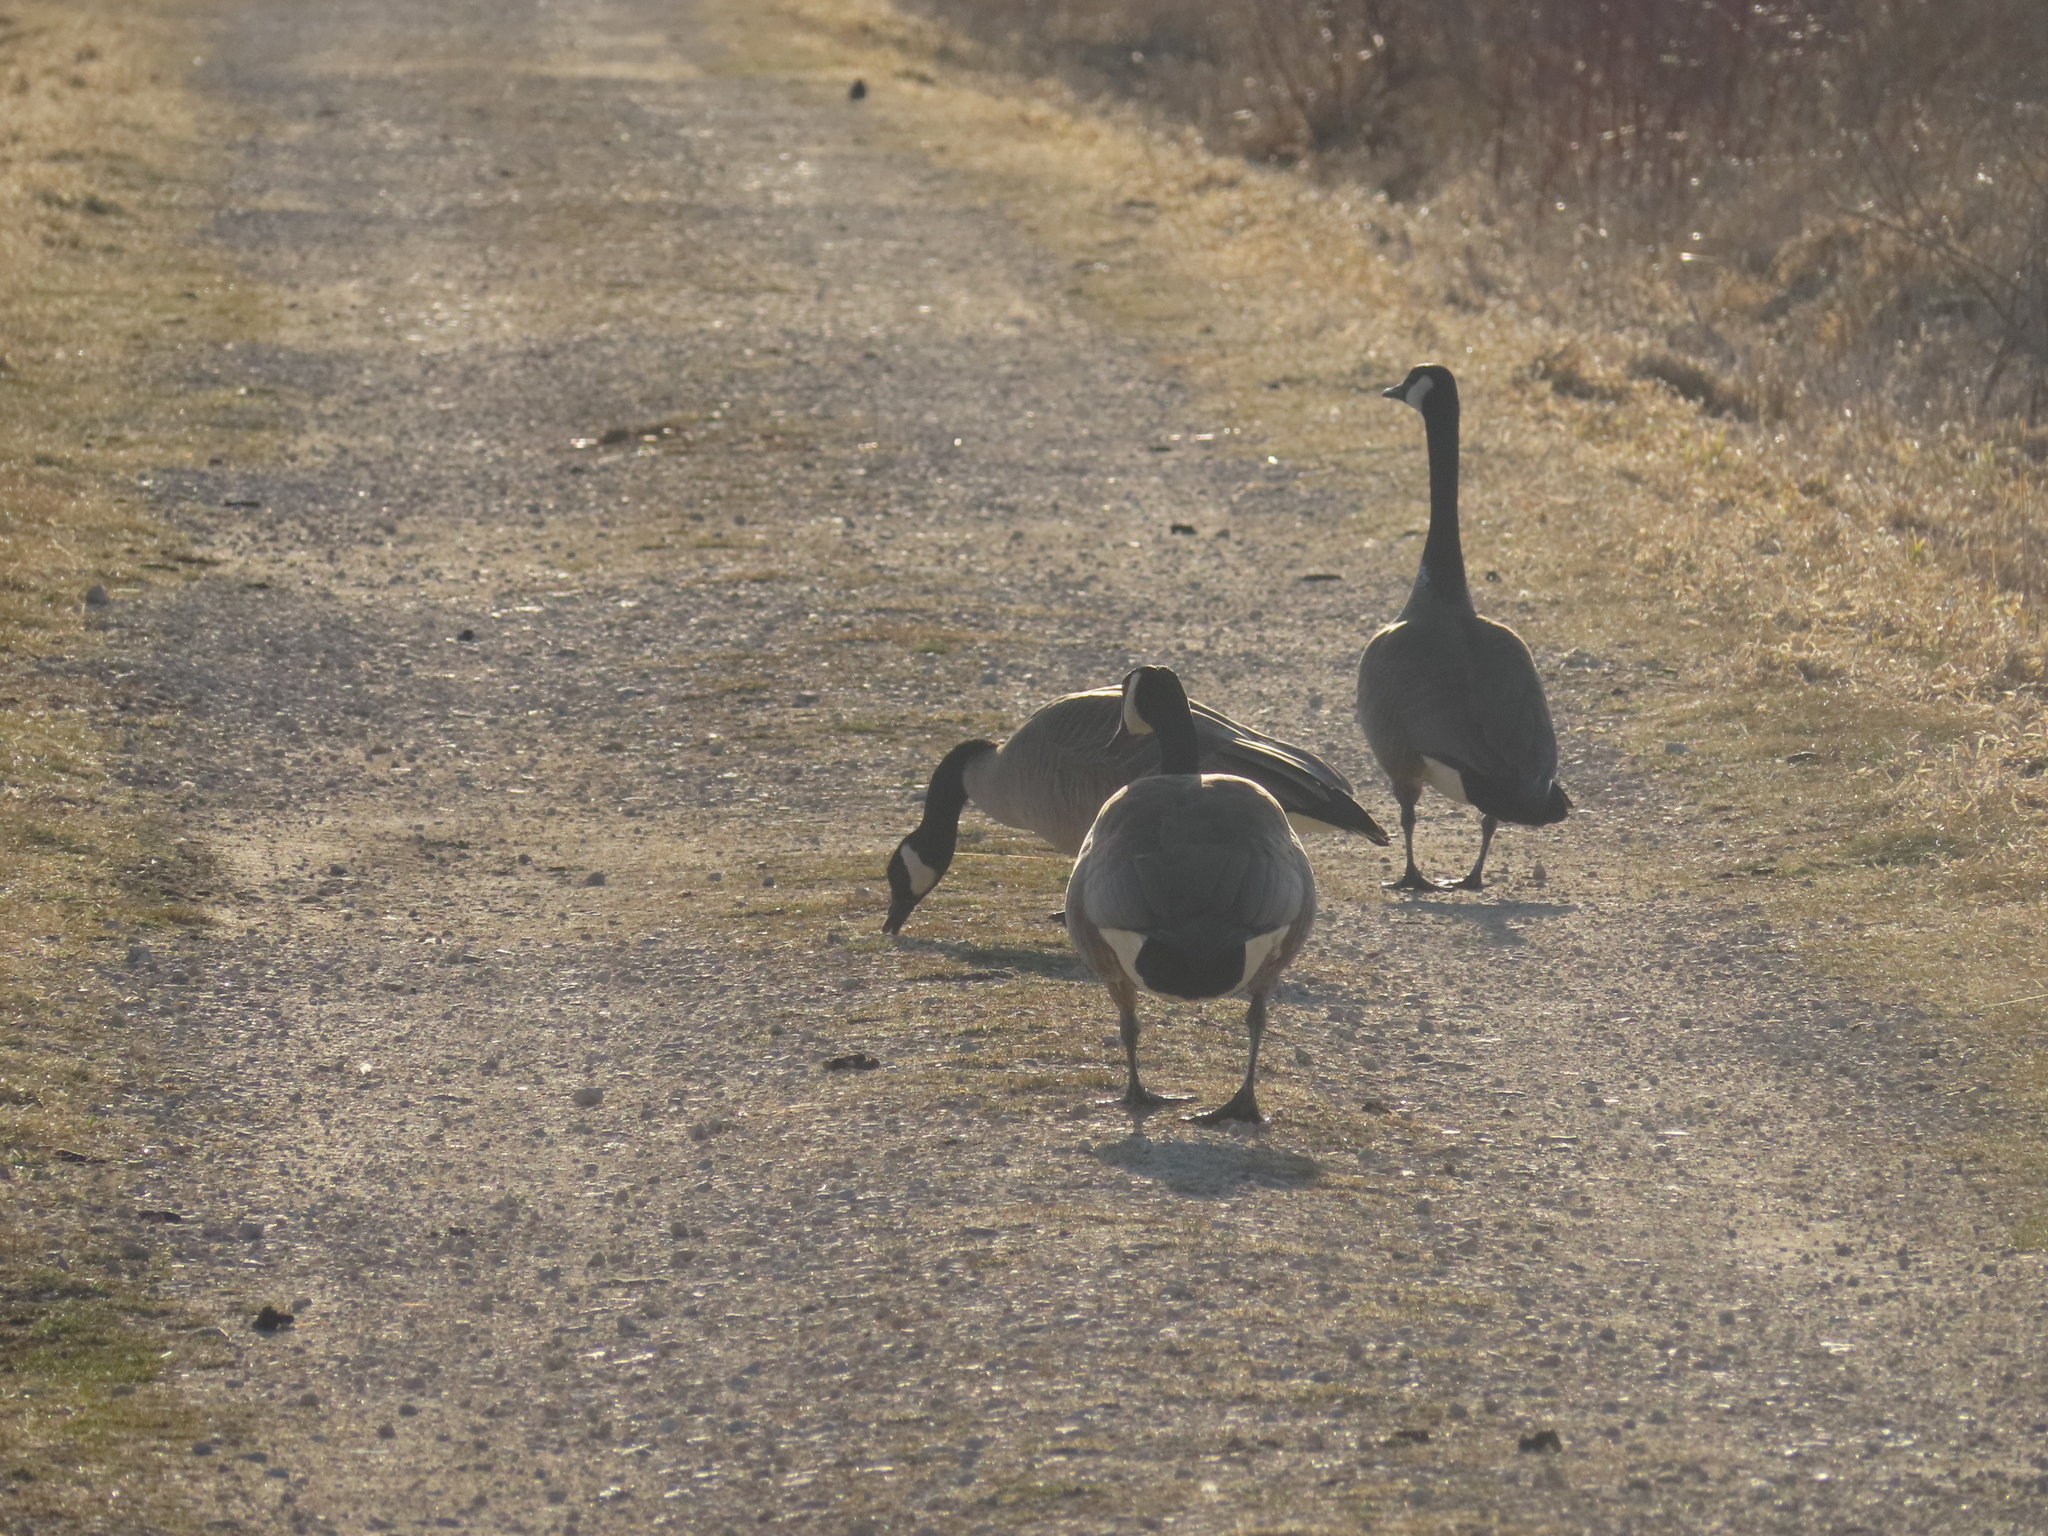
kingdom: Animalia
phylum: Chordata
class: Aves
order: Anseriformes
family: Anatidae
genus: Branta
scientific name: Branta canadensis
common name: Canada goose
